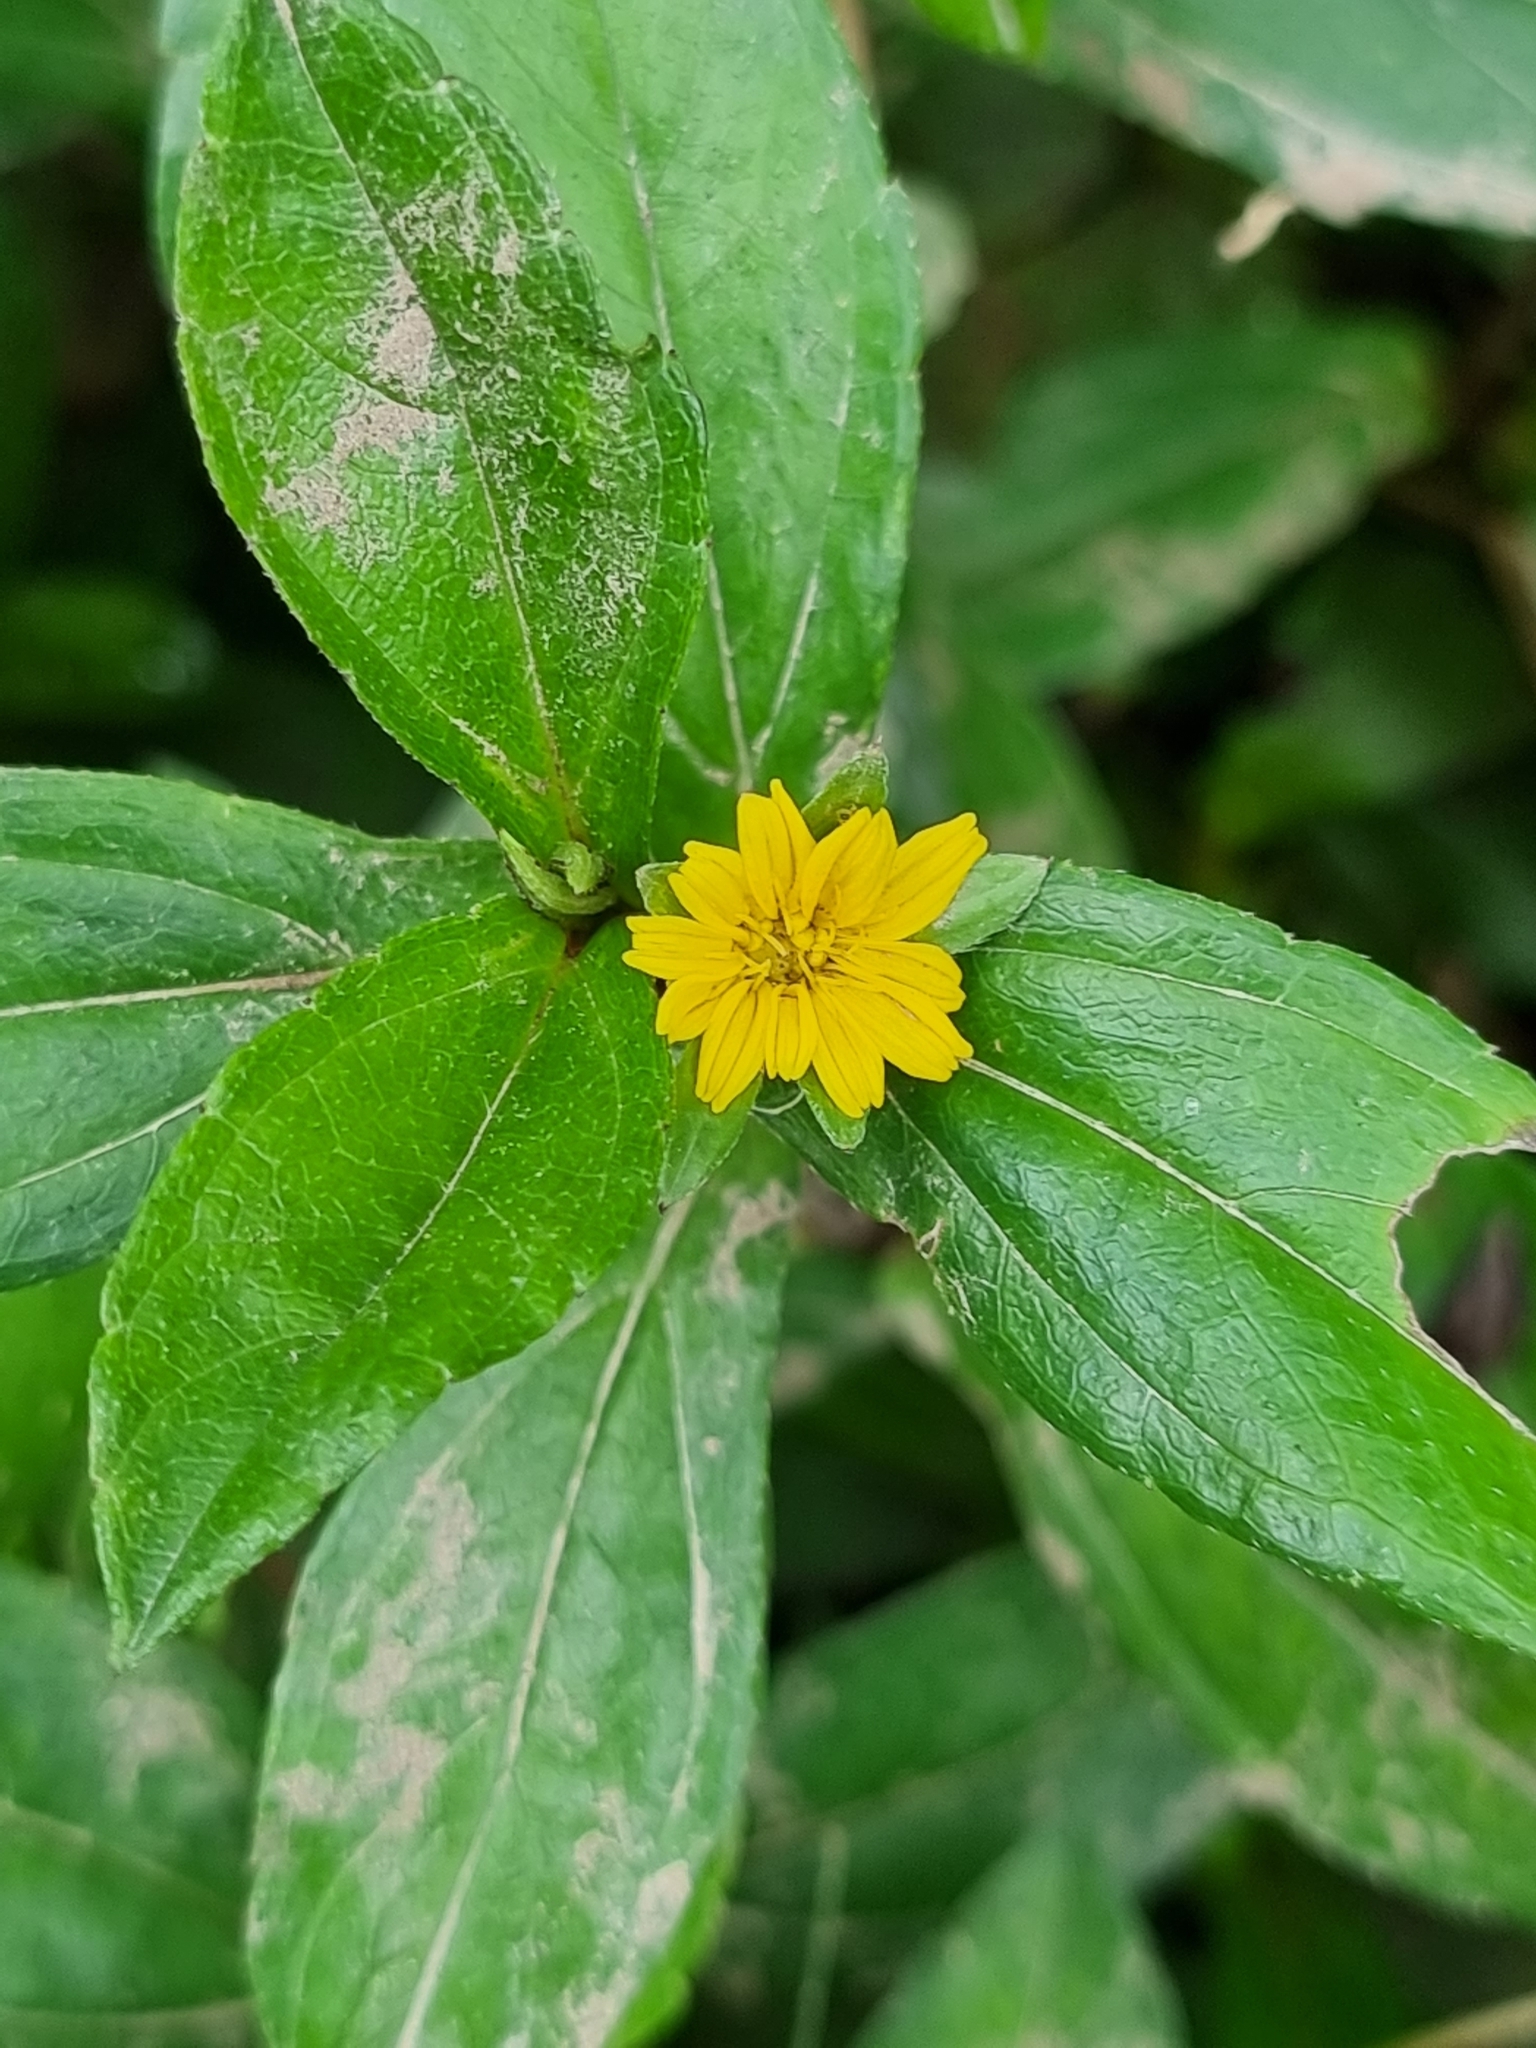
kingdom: Plantae
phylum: Tracheophyta
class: Magnoliopsida
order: Asterales
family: Asteraceae
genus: Sphagneticola
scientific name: Sphagneticola trilobata
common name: Bay biscayne creeping-oxeye
